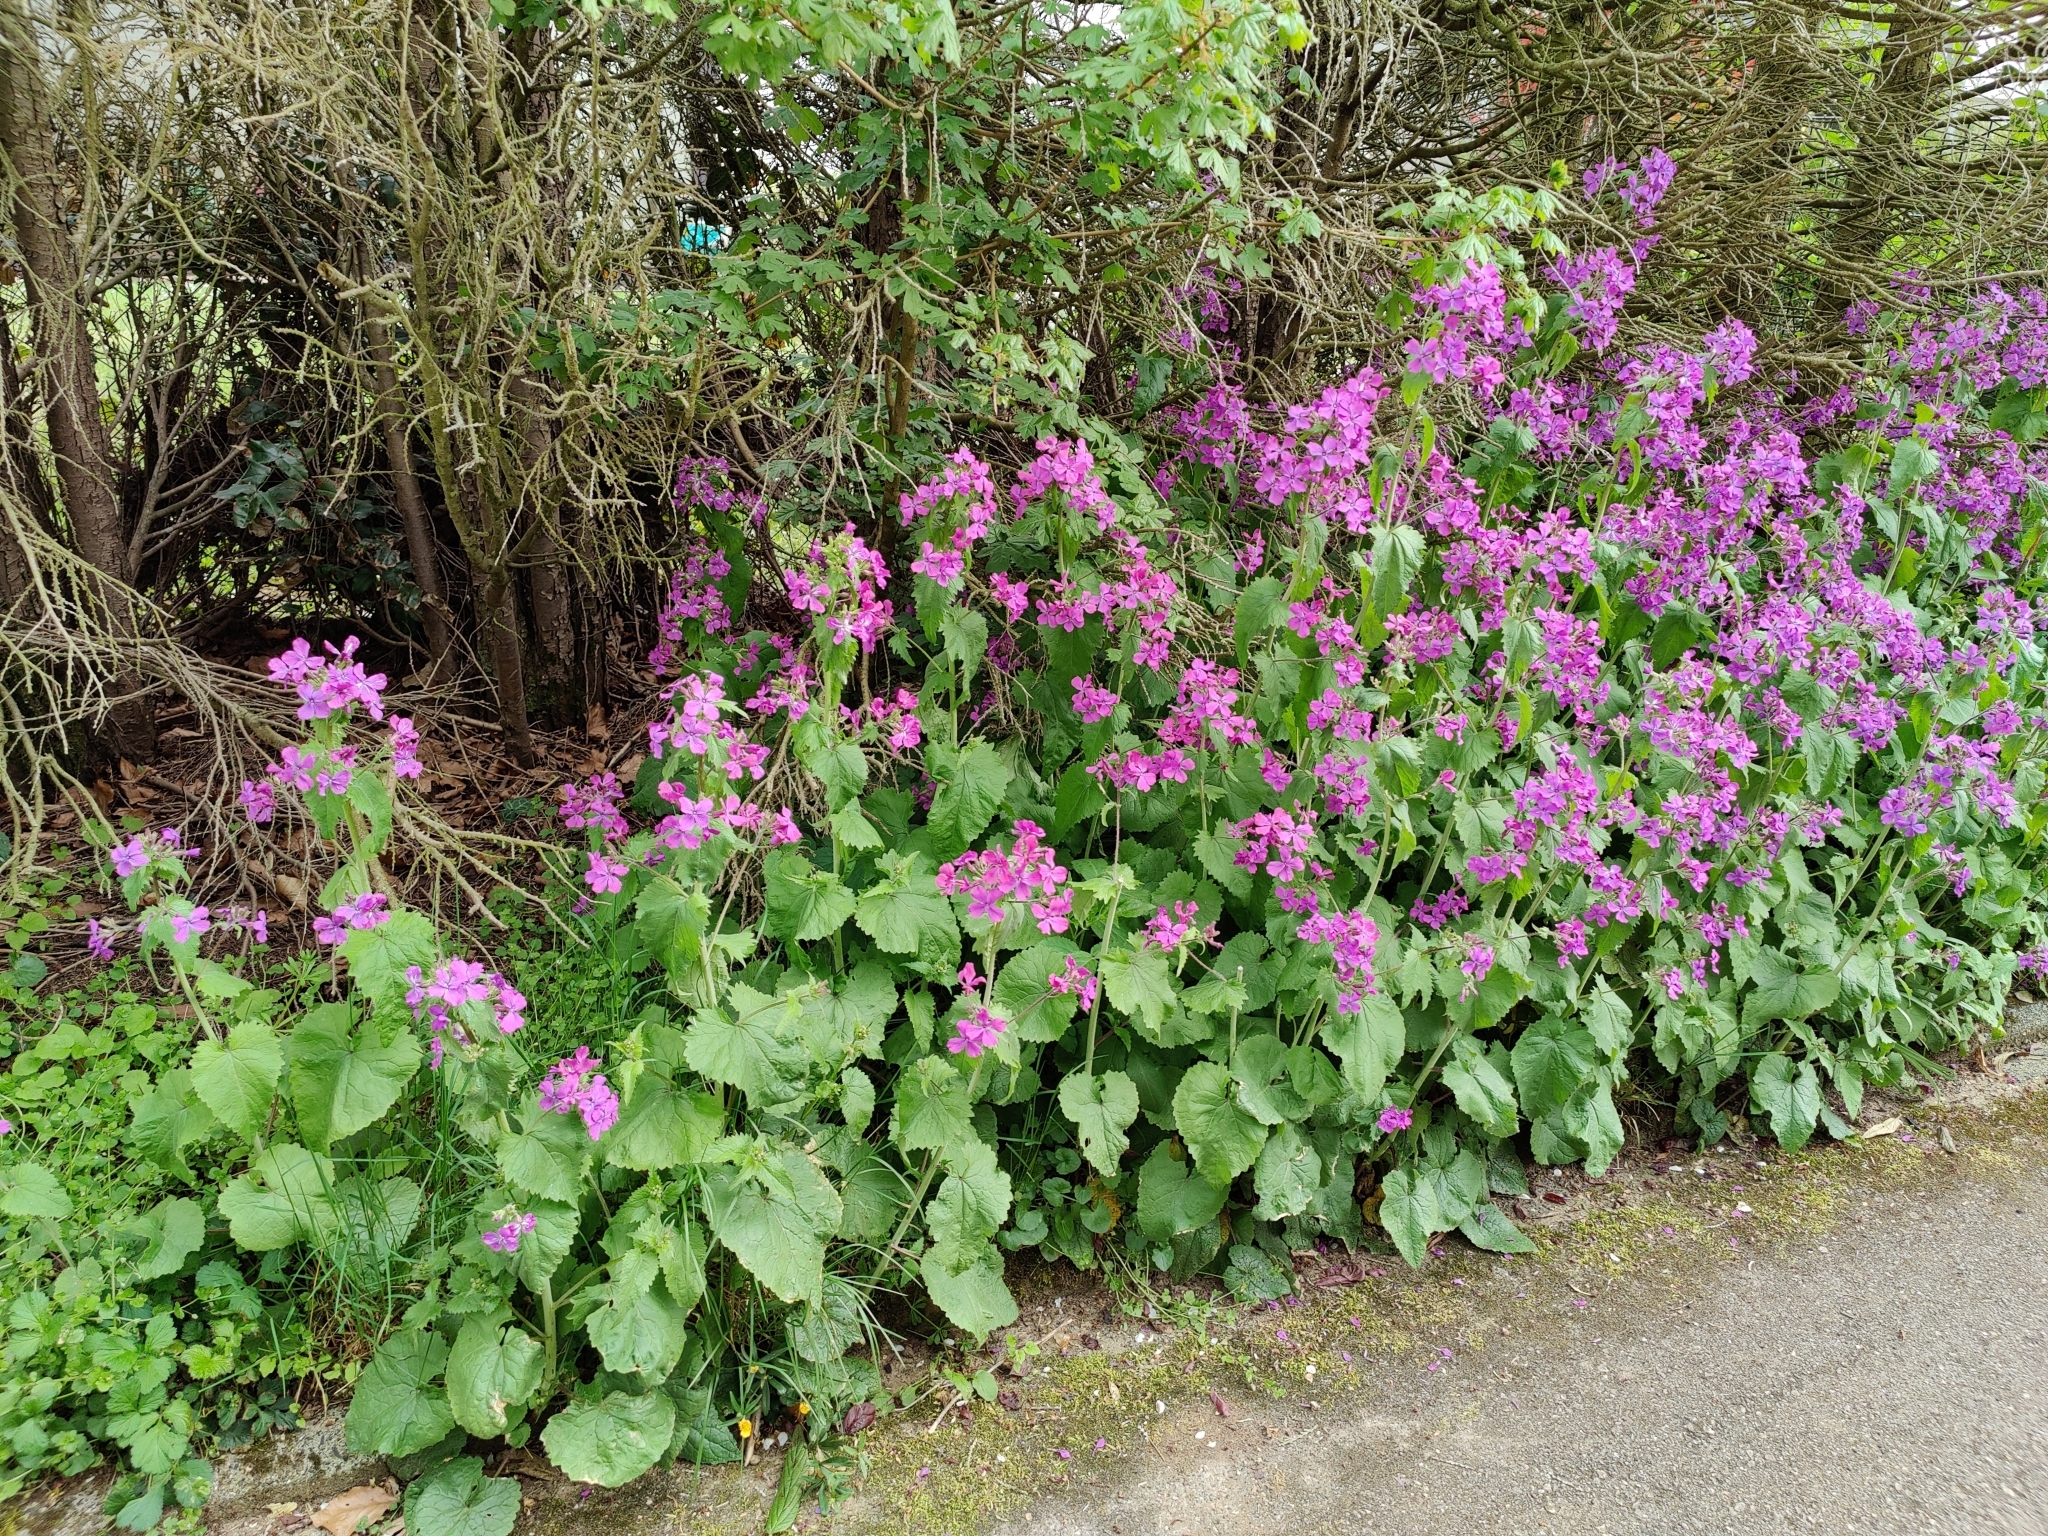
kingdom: Plantae
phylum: Tracheophyta
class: Magnoliopsida
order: Brassicales
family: Brassicaceae
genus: Lunaria
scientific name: Lunaria annua
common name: Honesty
